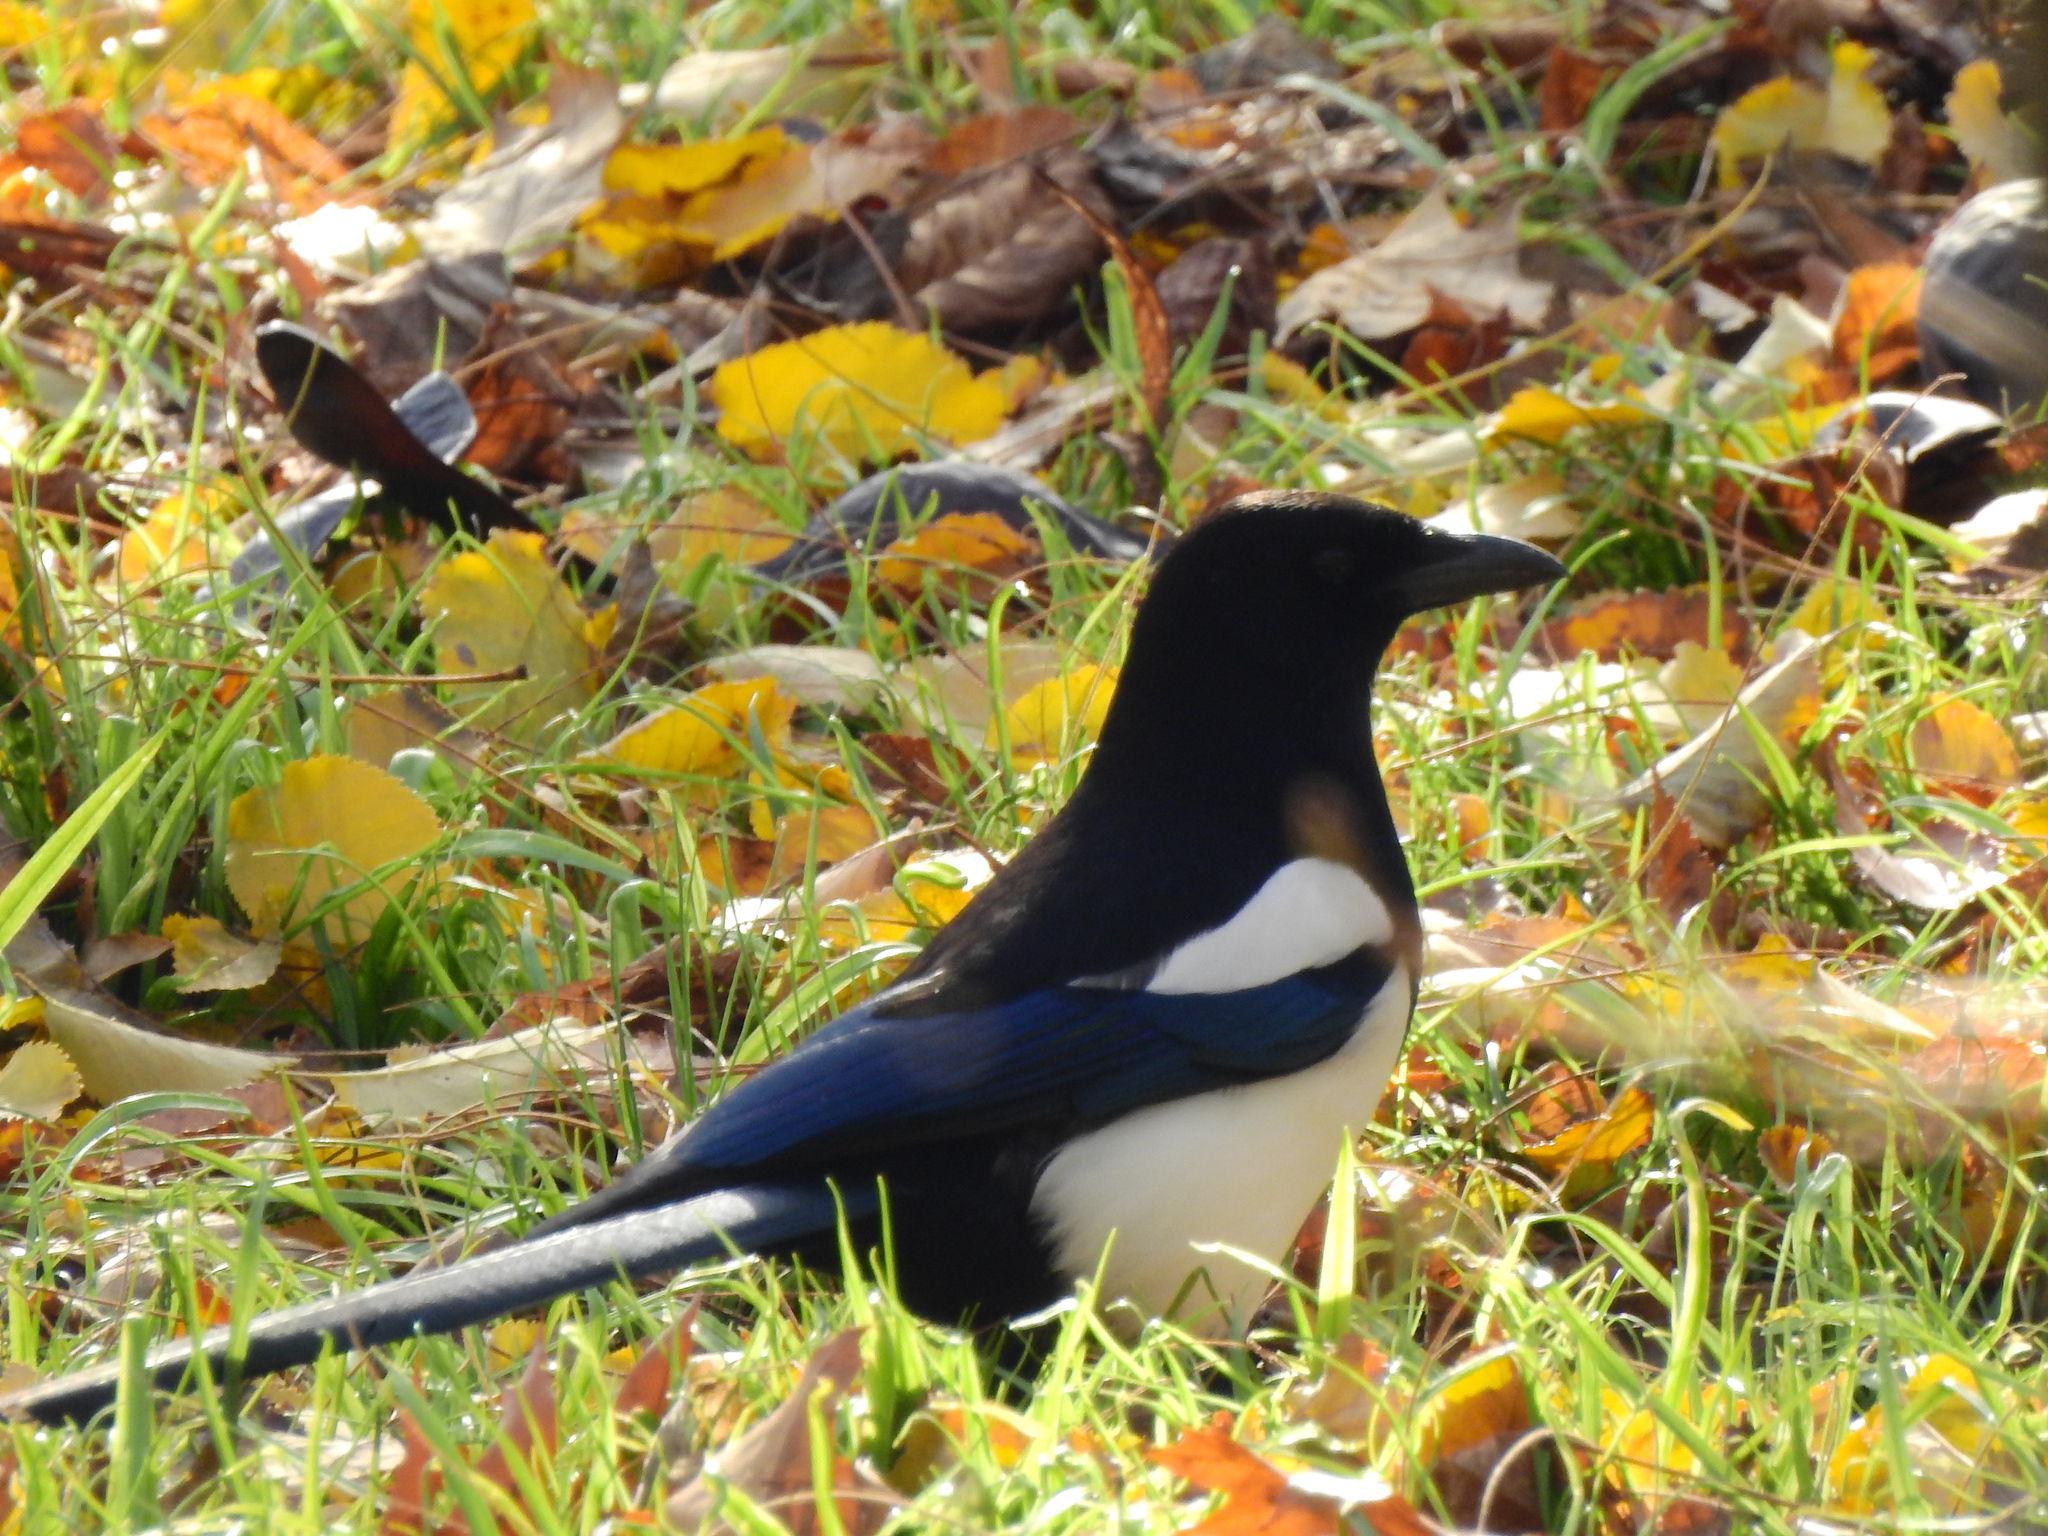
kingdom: Animalia
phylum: Chordata
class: Aves
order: Passeriformes
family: Corvidae
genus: Pica
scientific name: Pica pica
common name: Eurasian magpie
